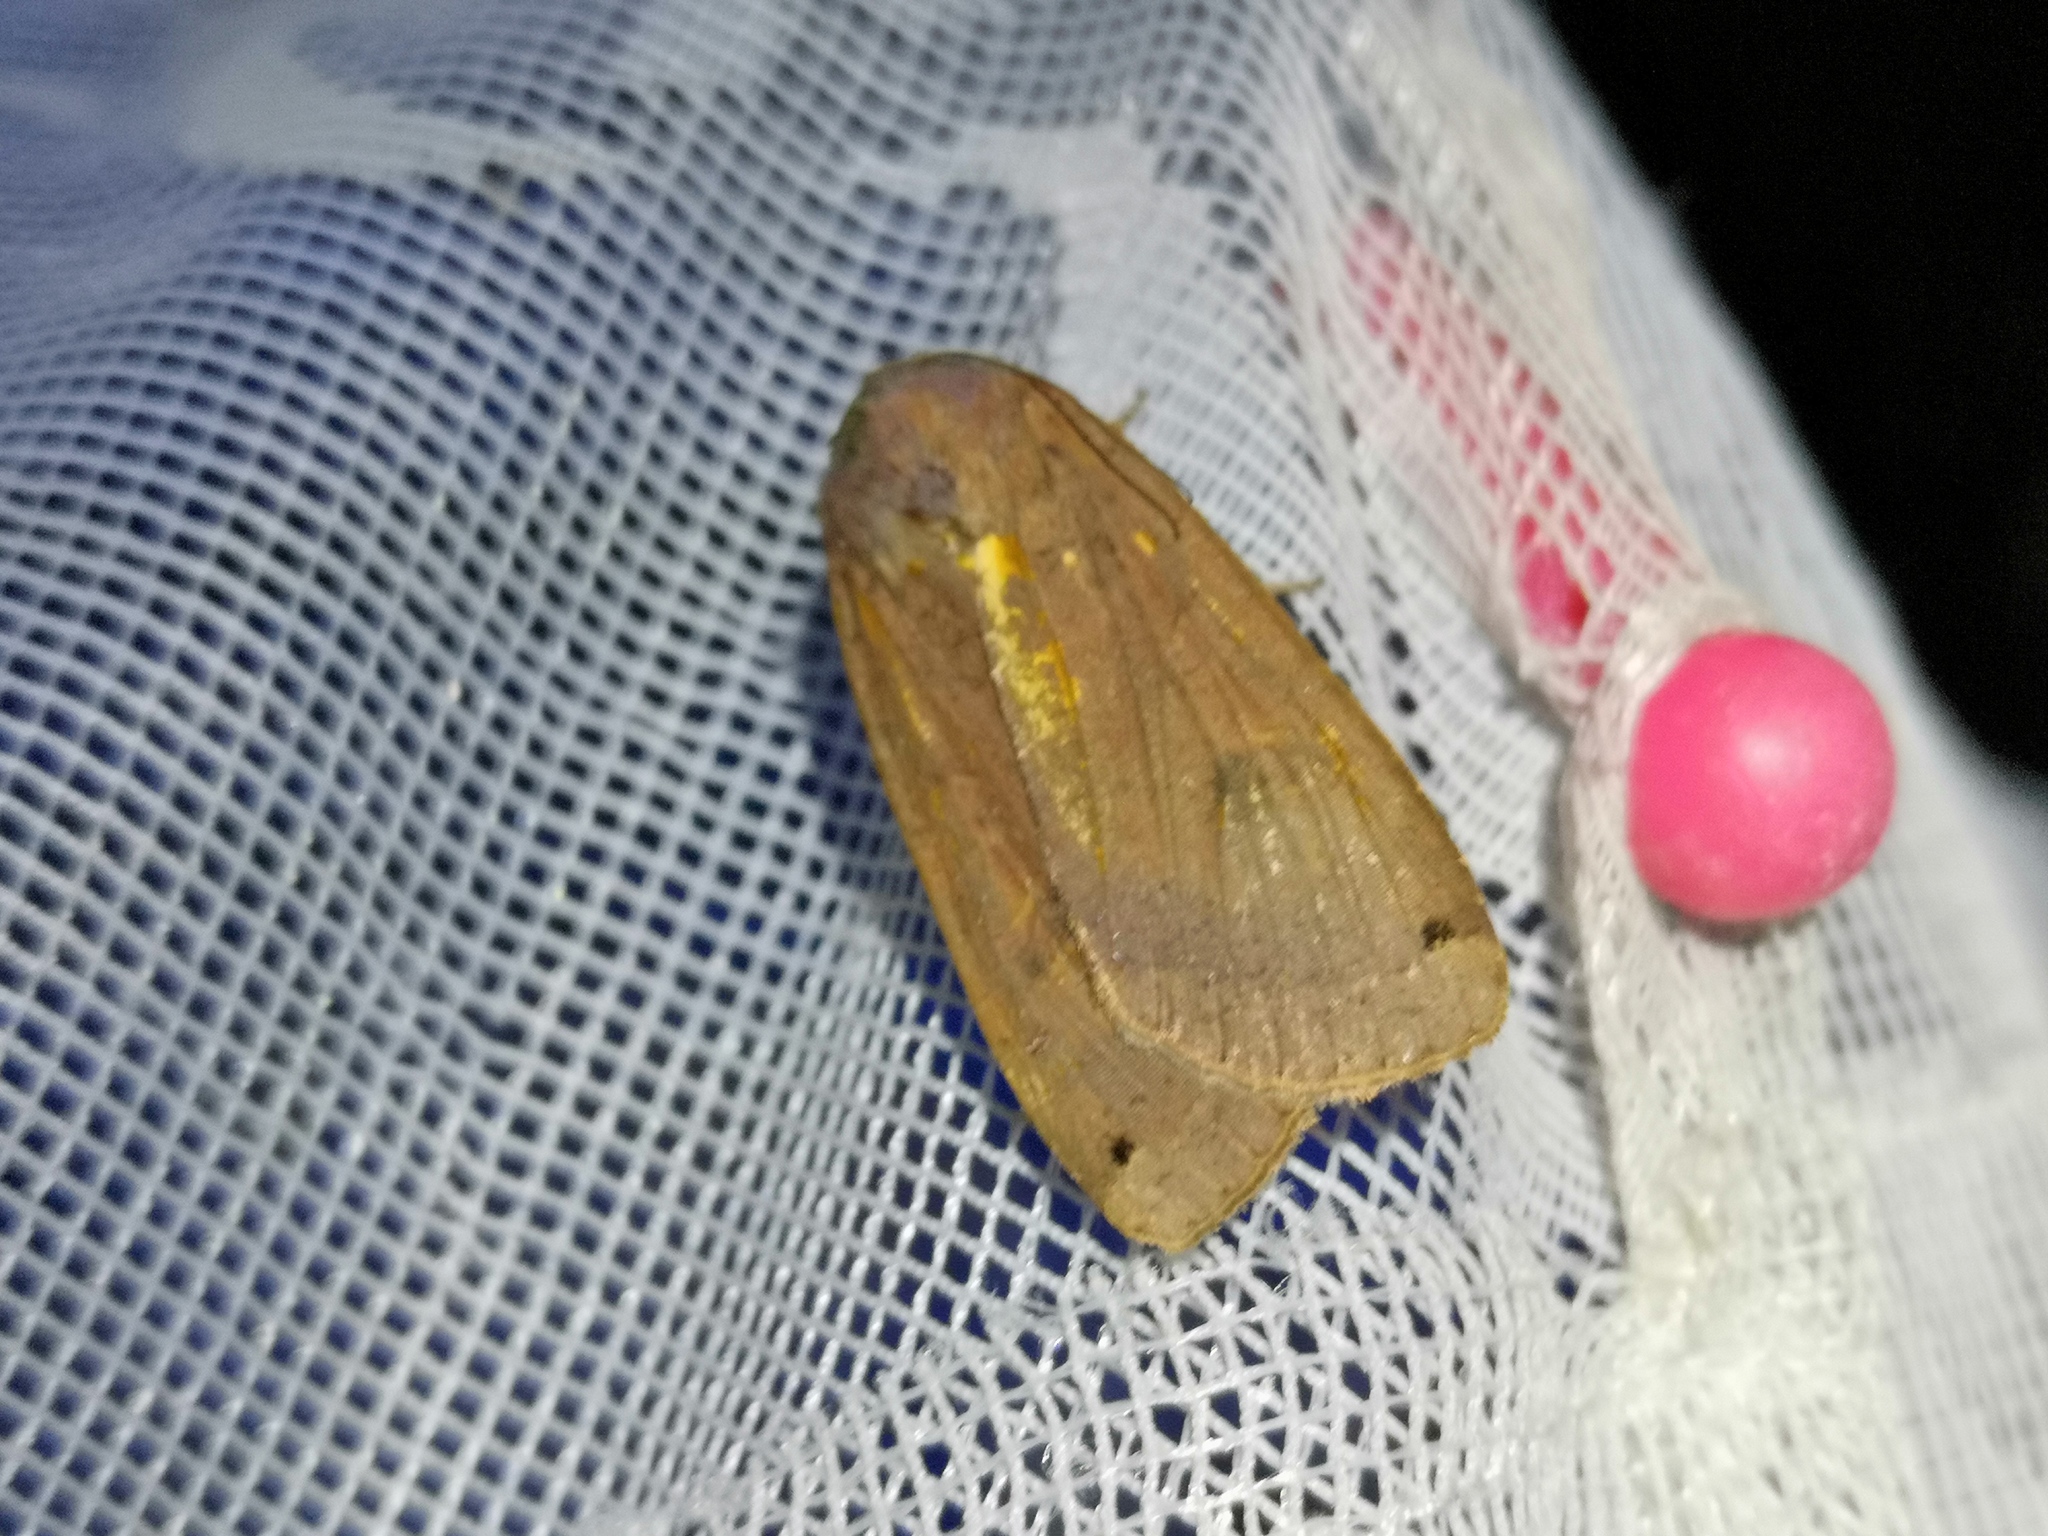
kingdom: Animalia
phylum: Arthropoda
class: Insecta
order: Lepidoptera
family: Noctuidae
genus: Noctua
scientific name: Noctua pronuba
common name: Large yellow underwing
